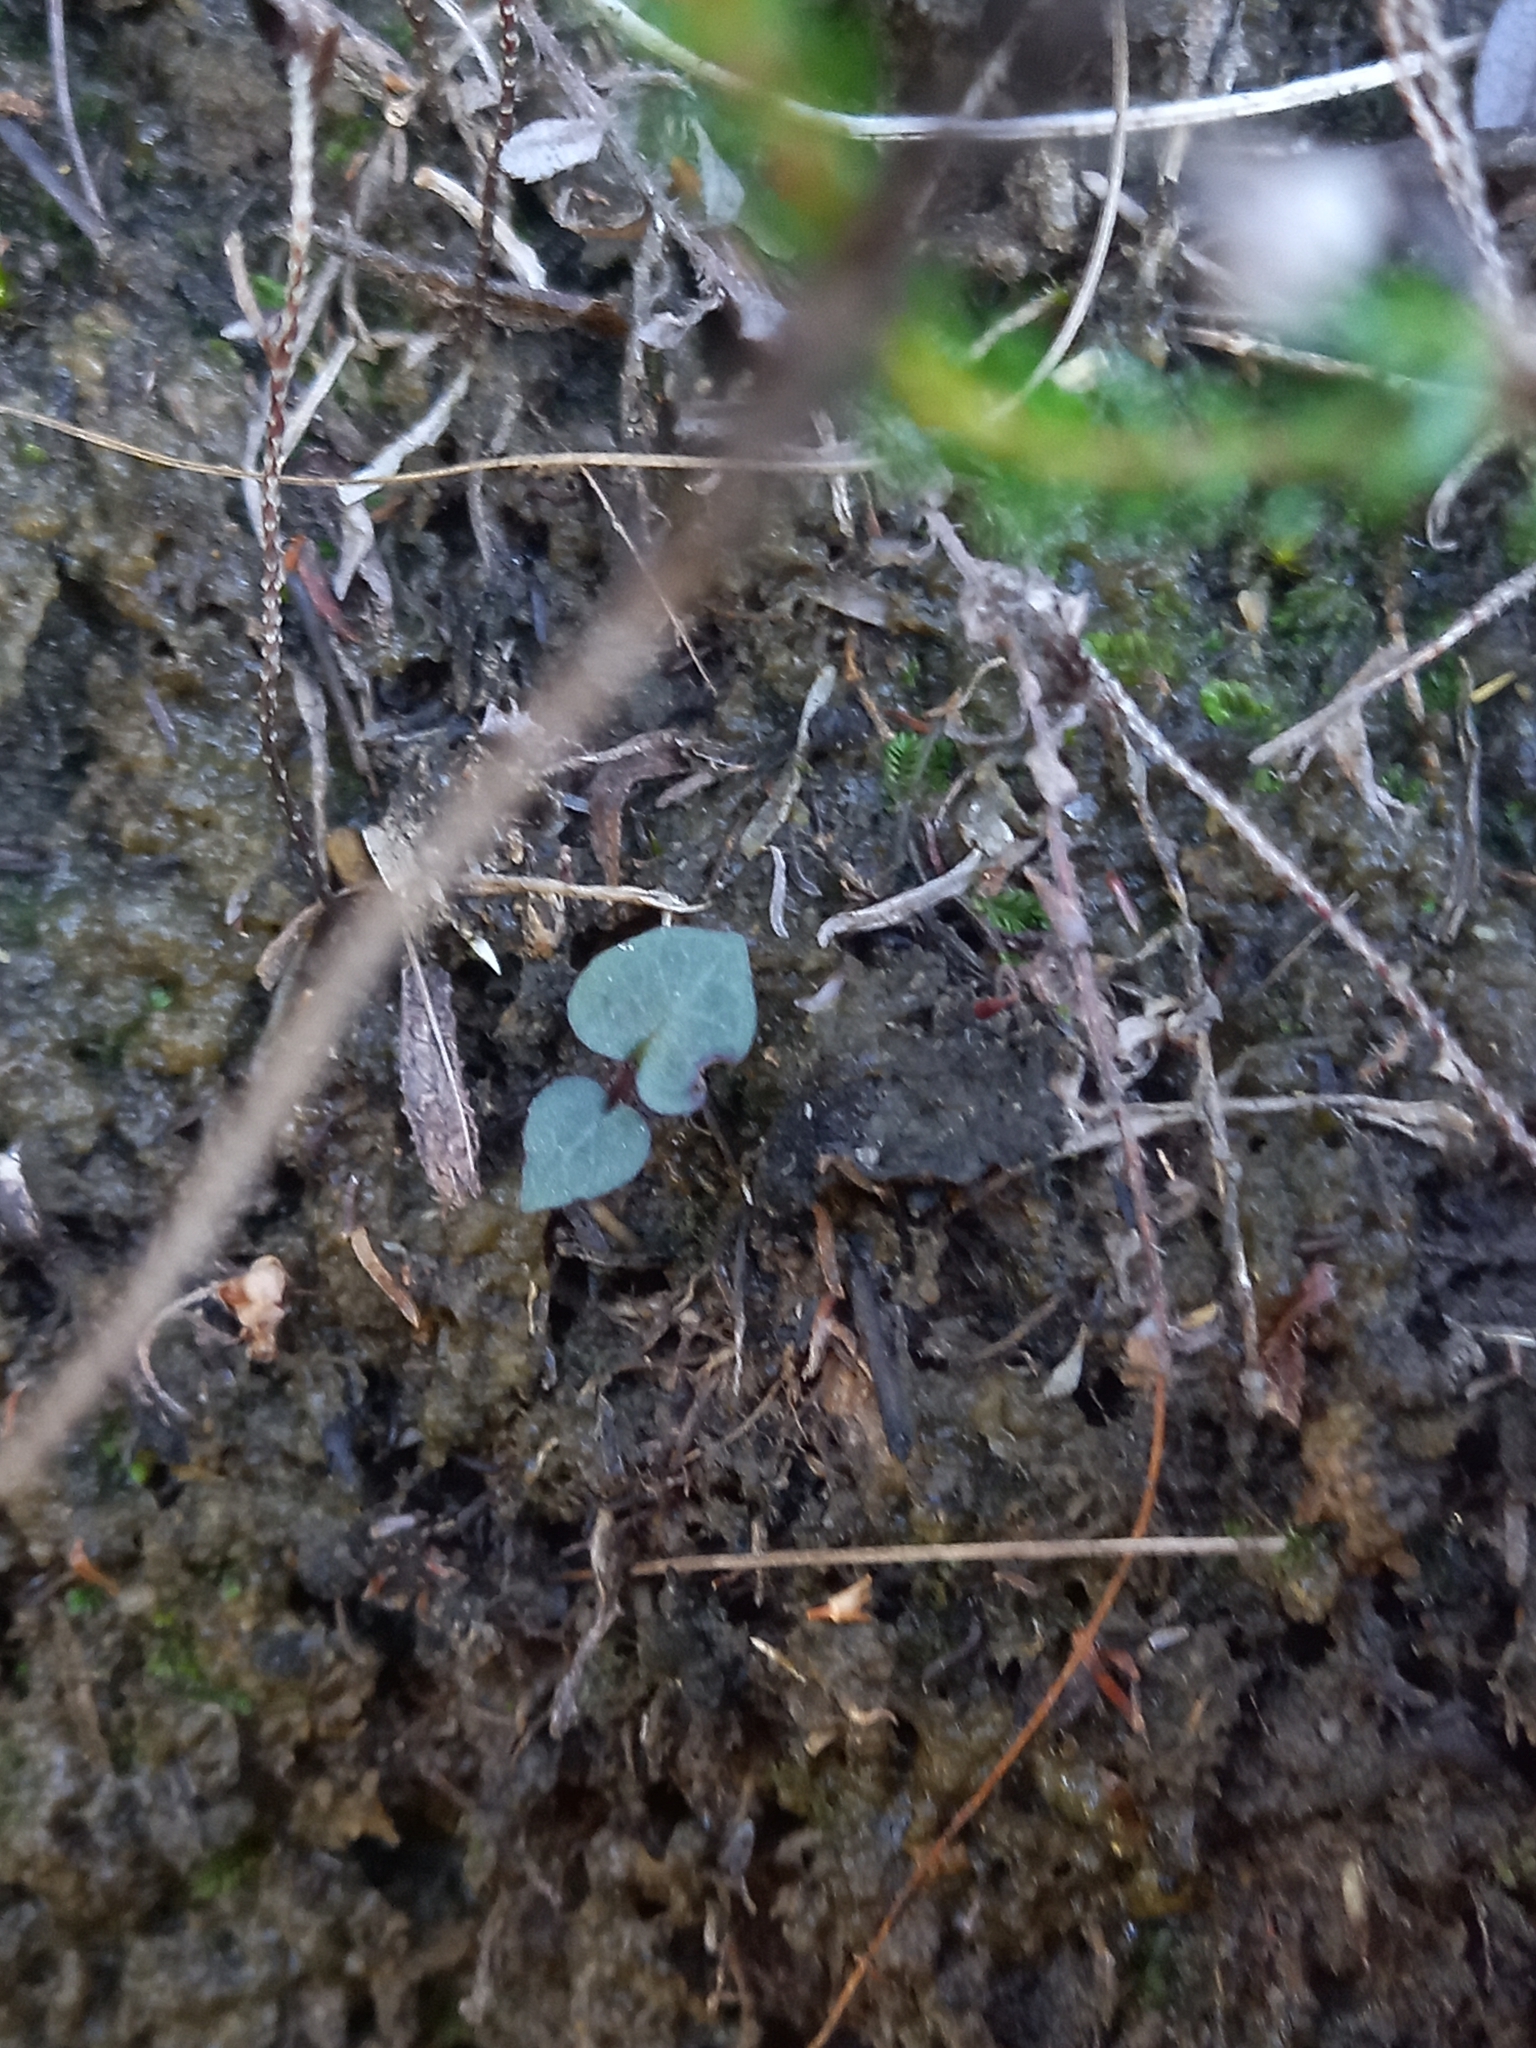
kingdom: Plantae
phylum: Tracheophyta
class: Liliopsida
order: Asparagales
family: Orchidaceae
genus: Disperis
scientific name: Disperis macowanii
